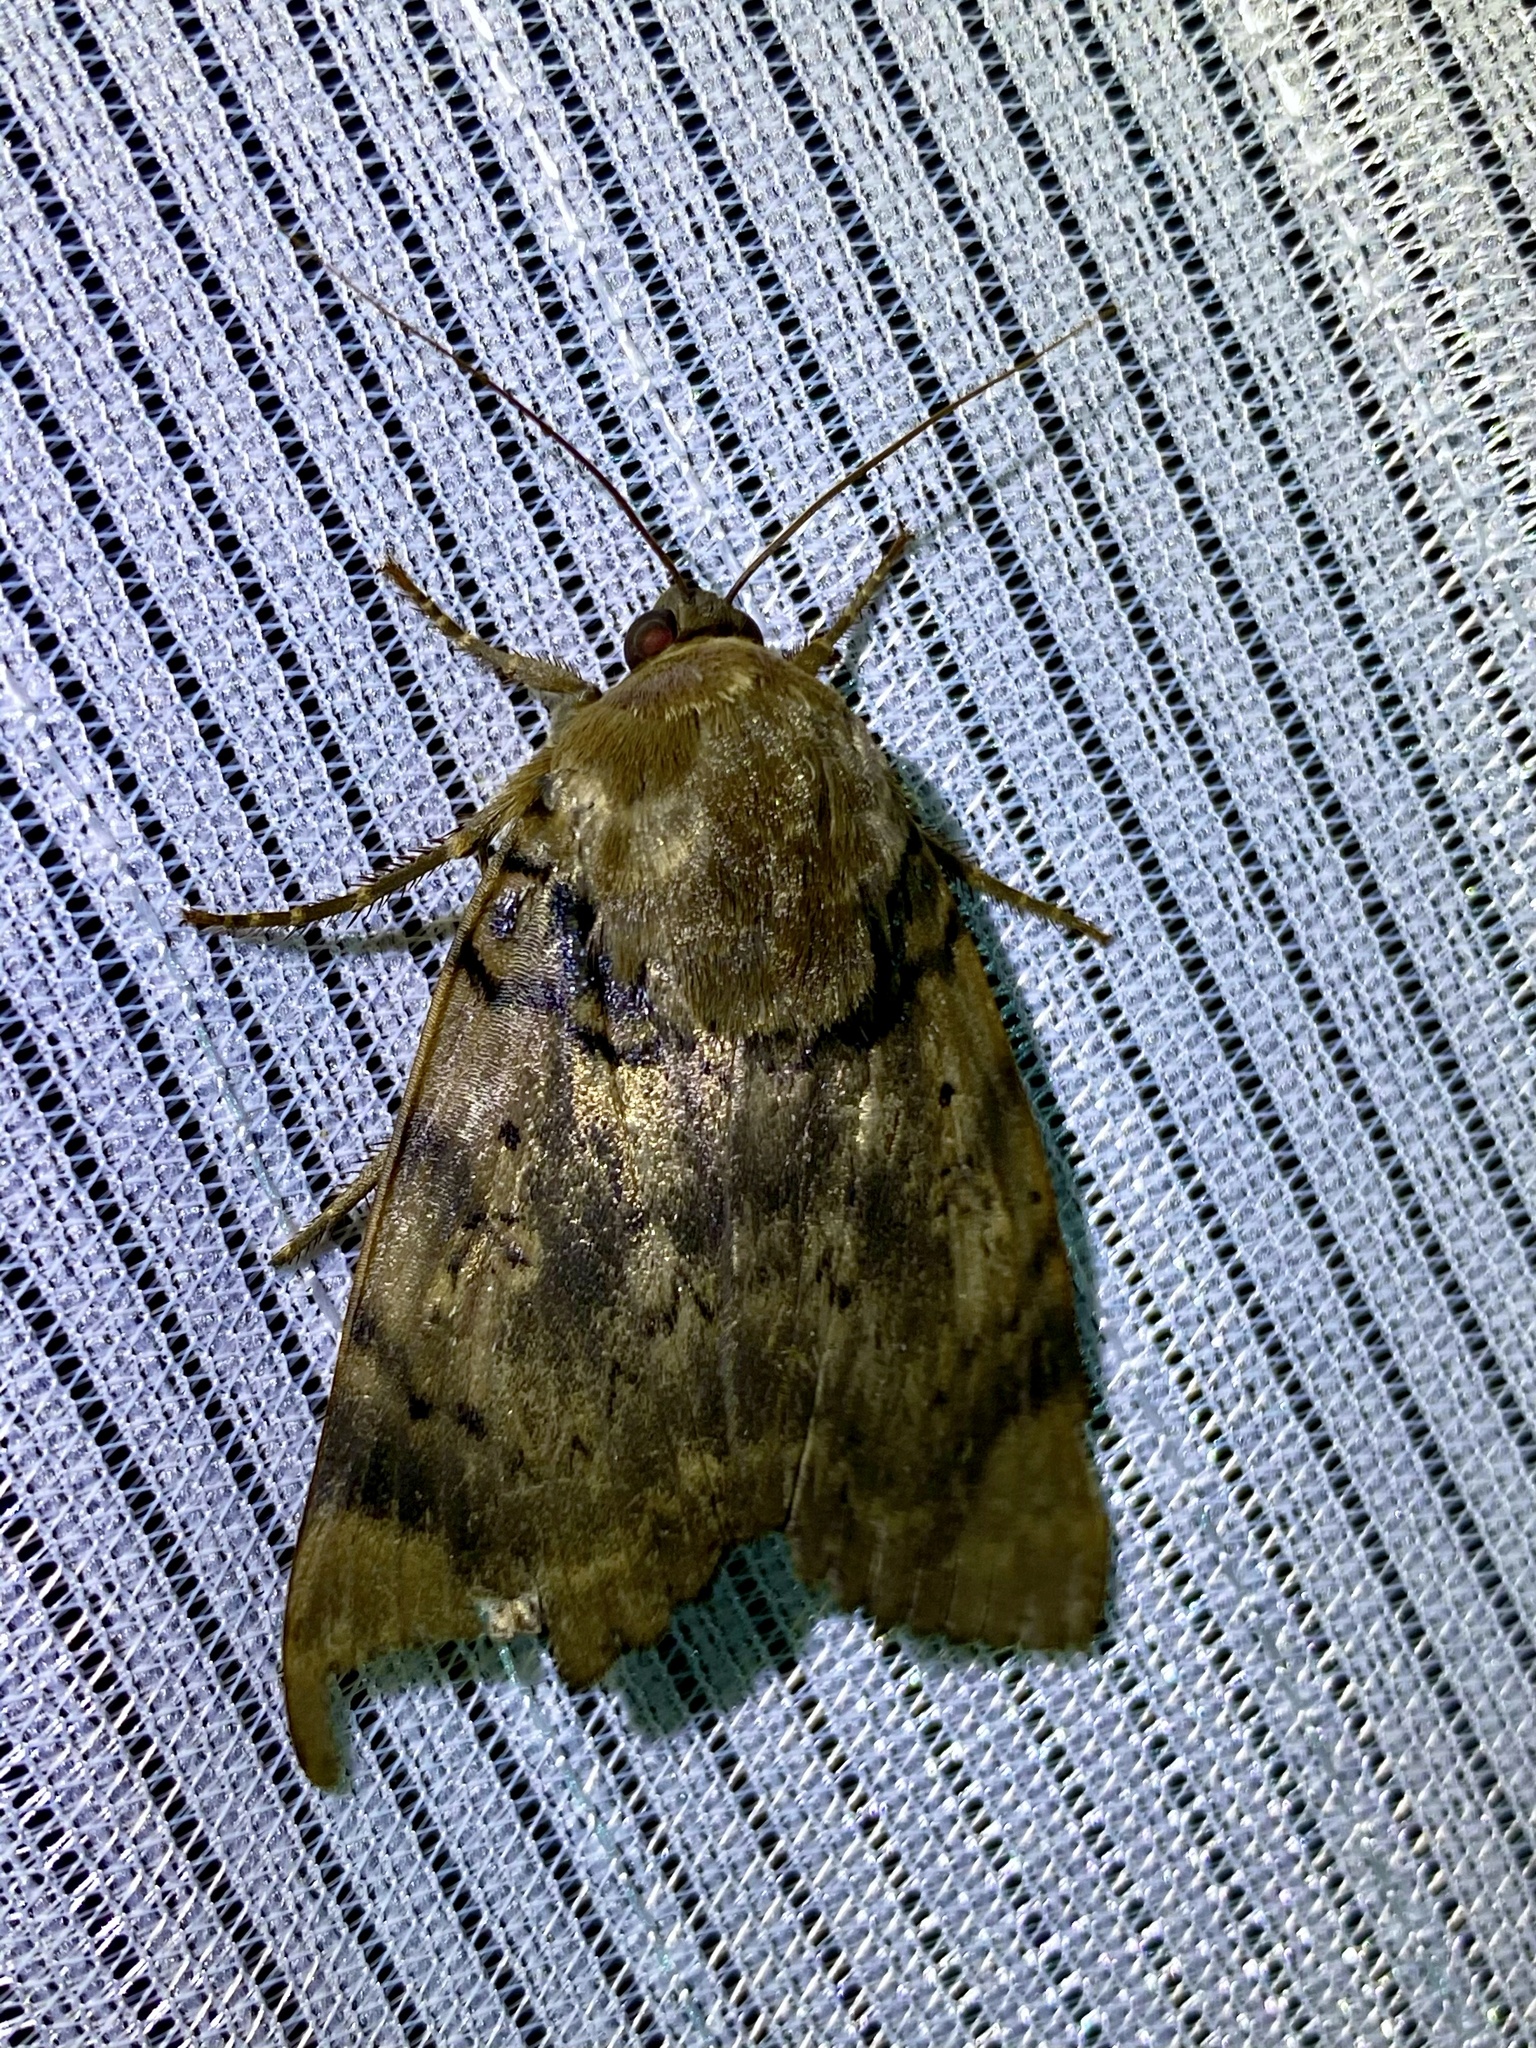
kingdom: Animalia
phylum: Arthropoda
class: Insecta
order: Lepidoptera
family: Erebidae
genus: Arcte
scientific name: Arcte coerula
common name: Ramie moth
